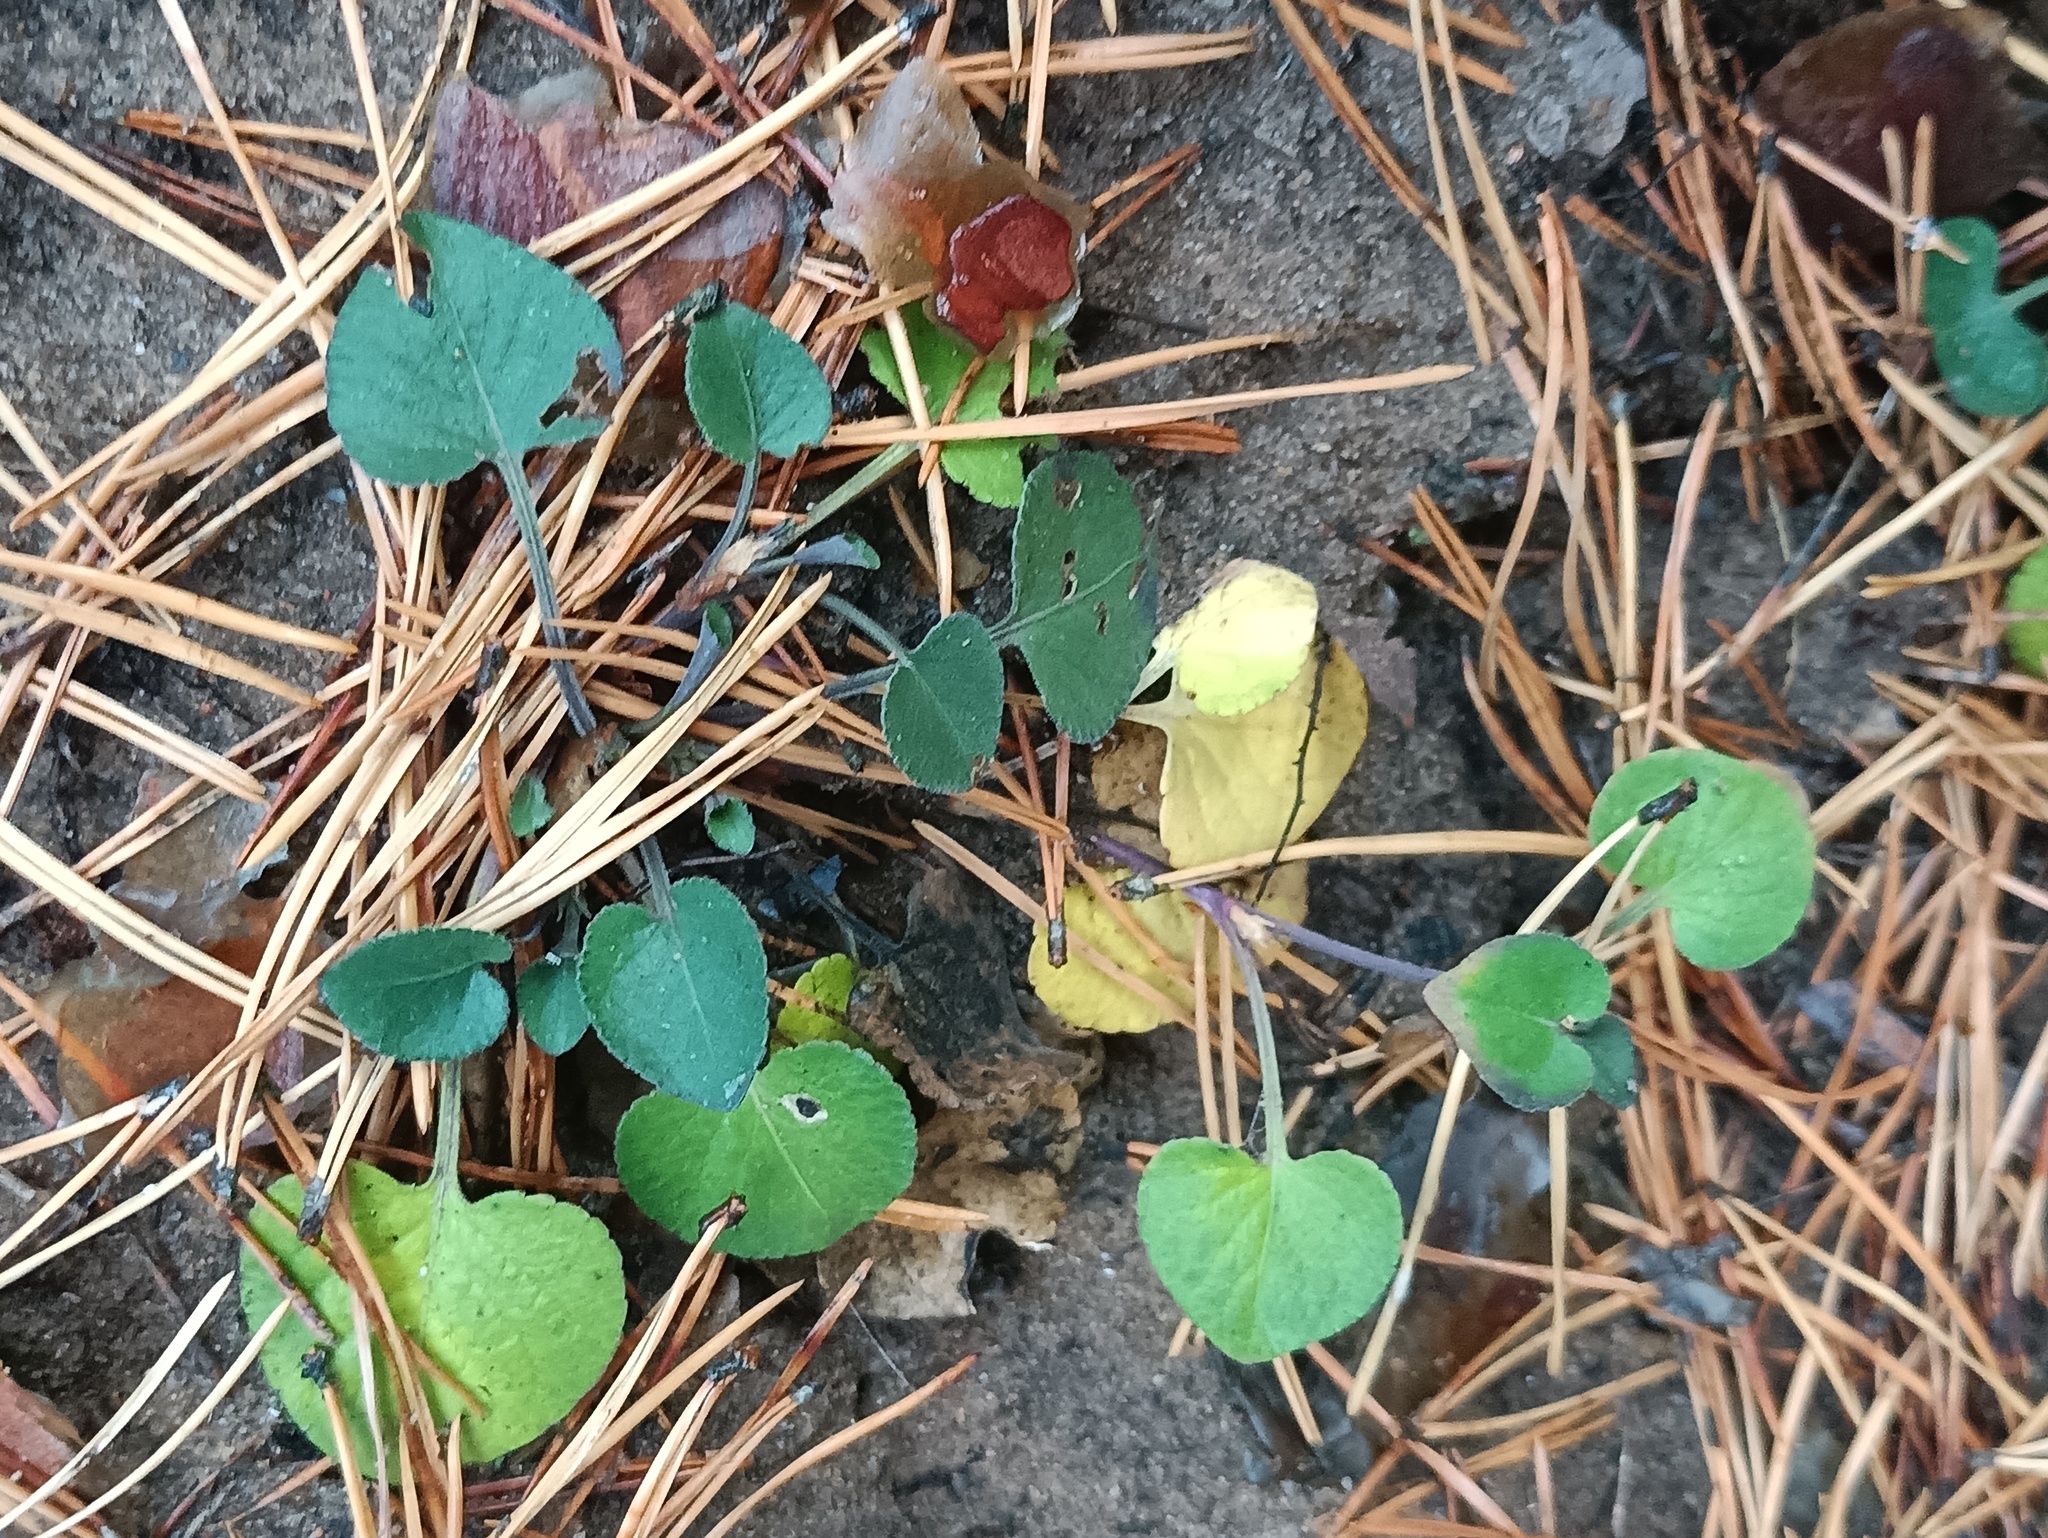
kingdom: Plantae
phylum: Tracheophyta
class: Magnoliopsida
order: Malpighiales
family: Violaceae
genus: Viola
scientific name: Viola rupestris
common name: Teesdale violet
